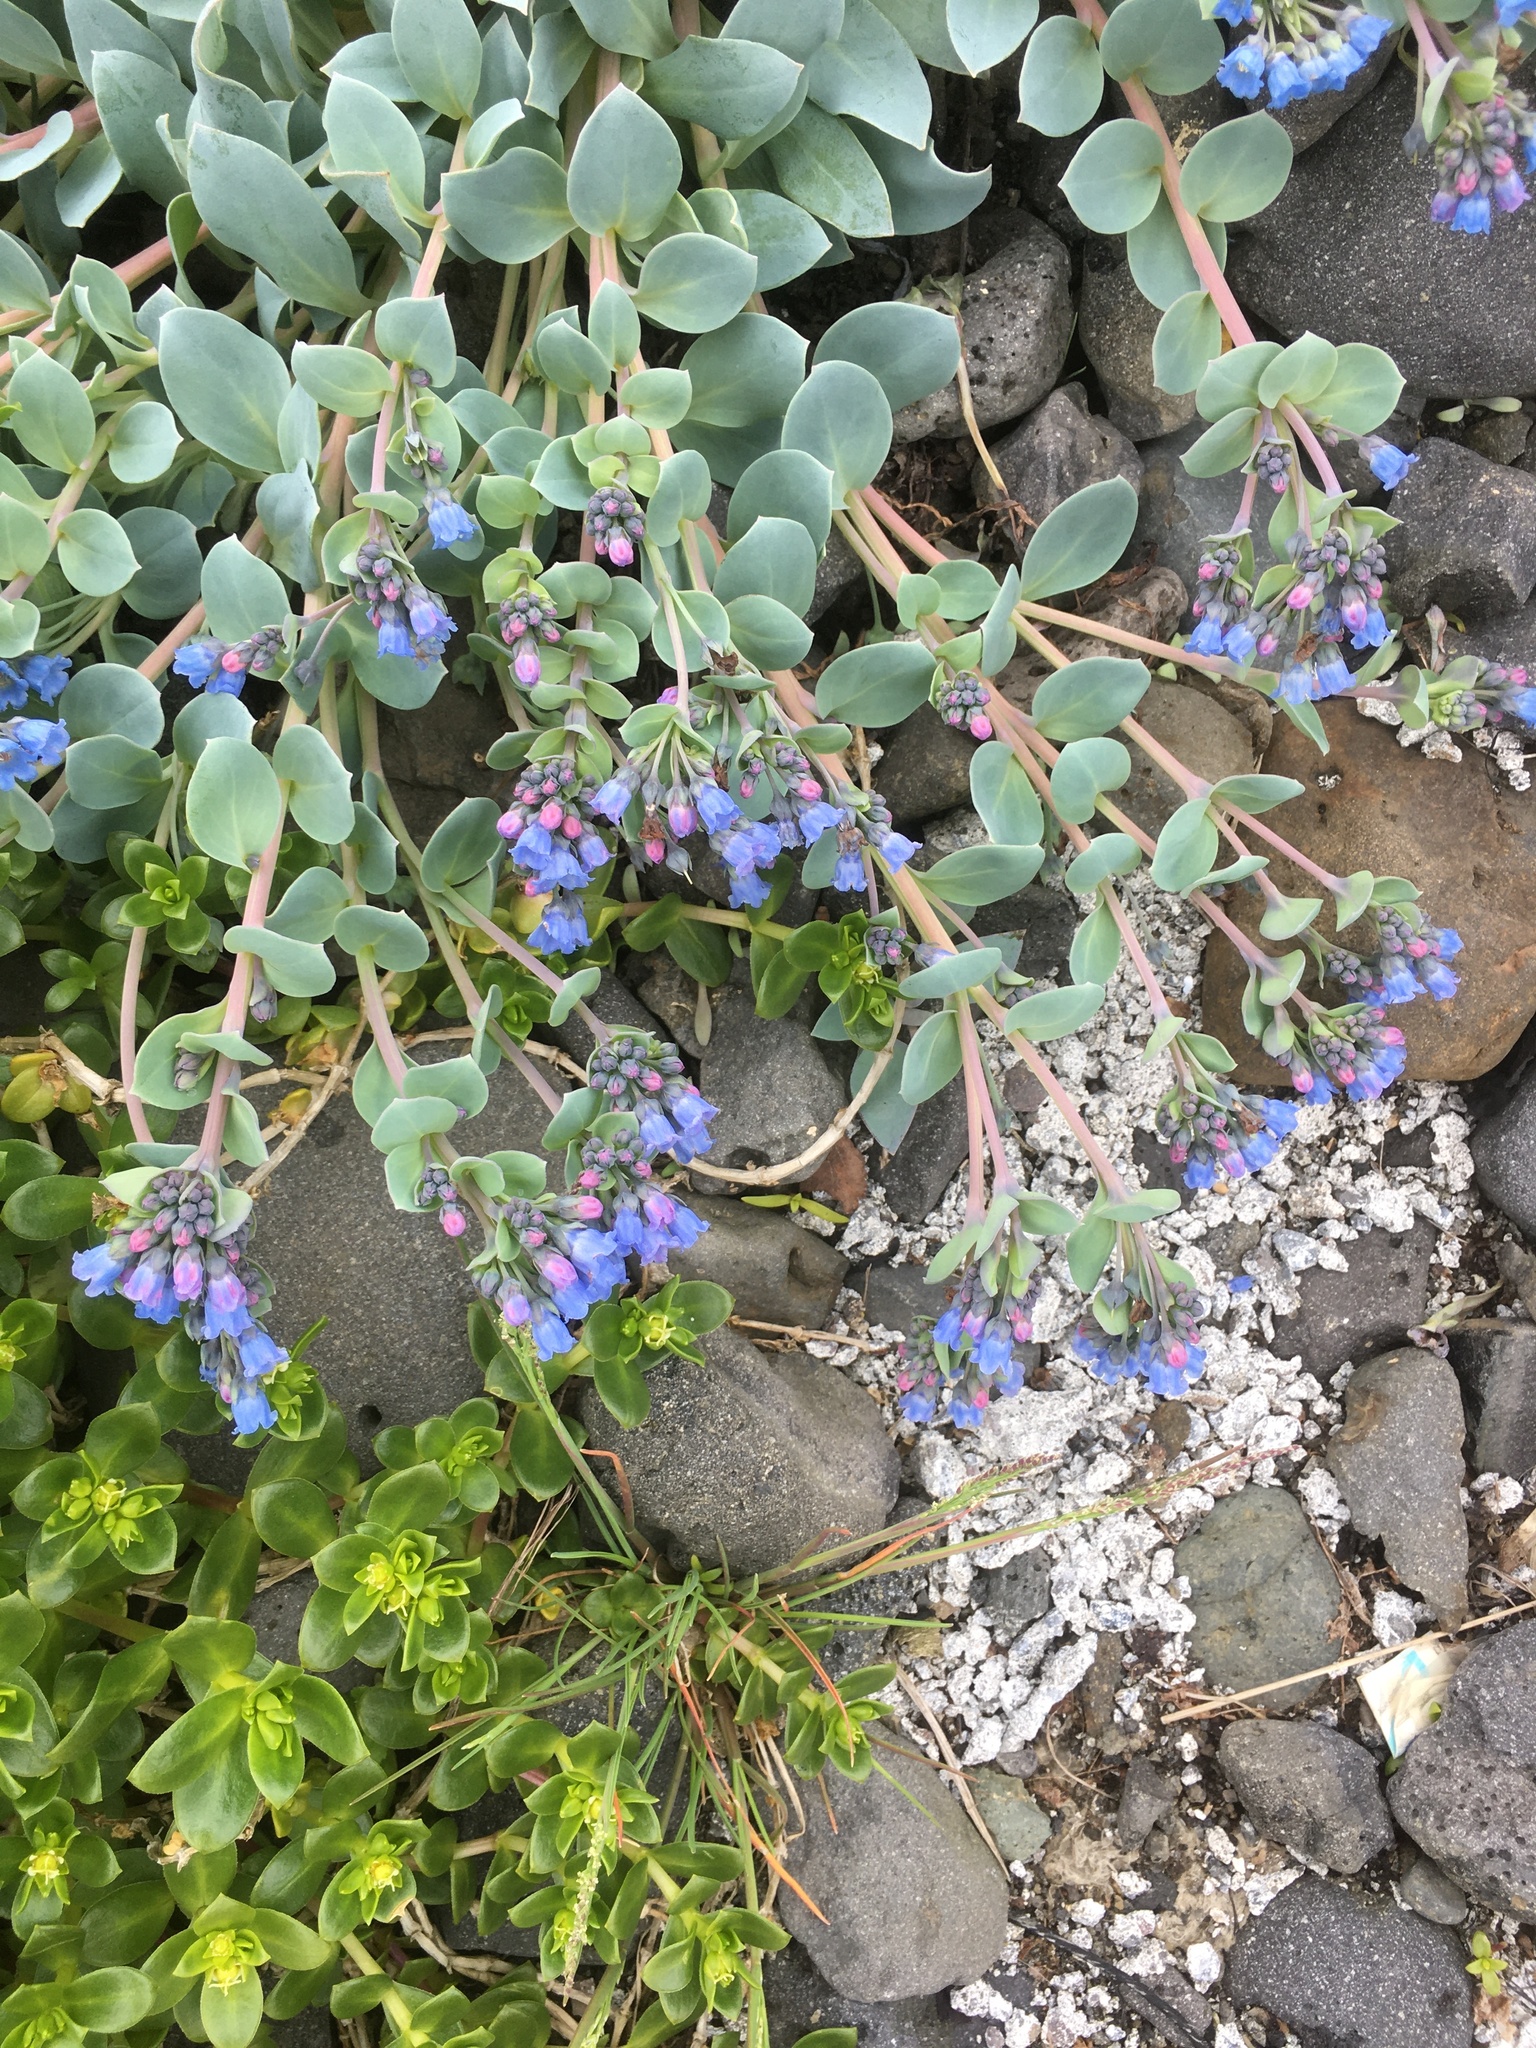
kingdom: Plantae
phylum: Tracheophyta
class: Magnoliopsida
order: Boraginales
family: Boraginaceae
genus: Mertensia
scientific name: Mertensia maritima
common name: Oysterplant
